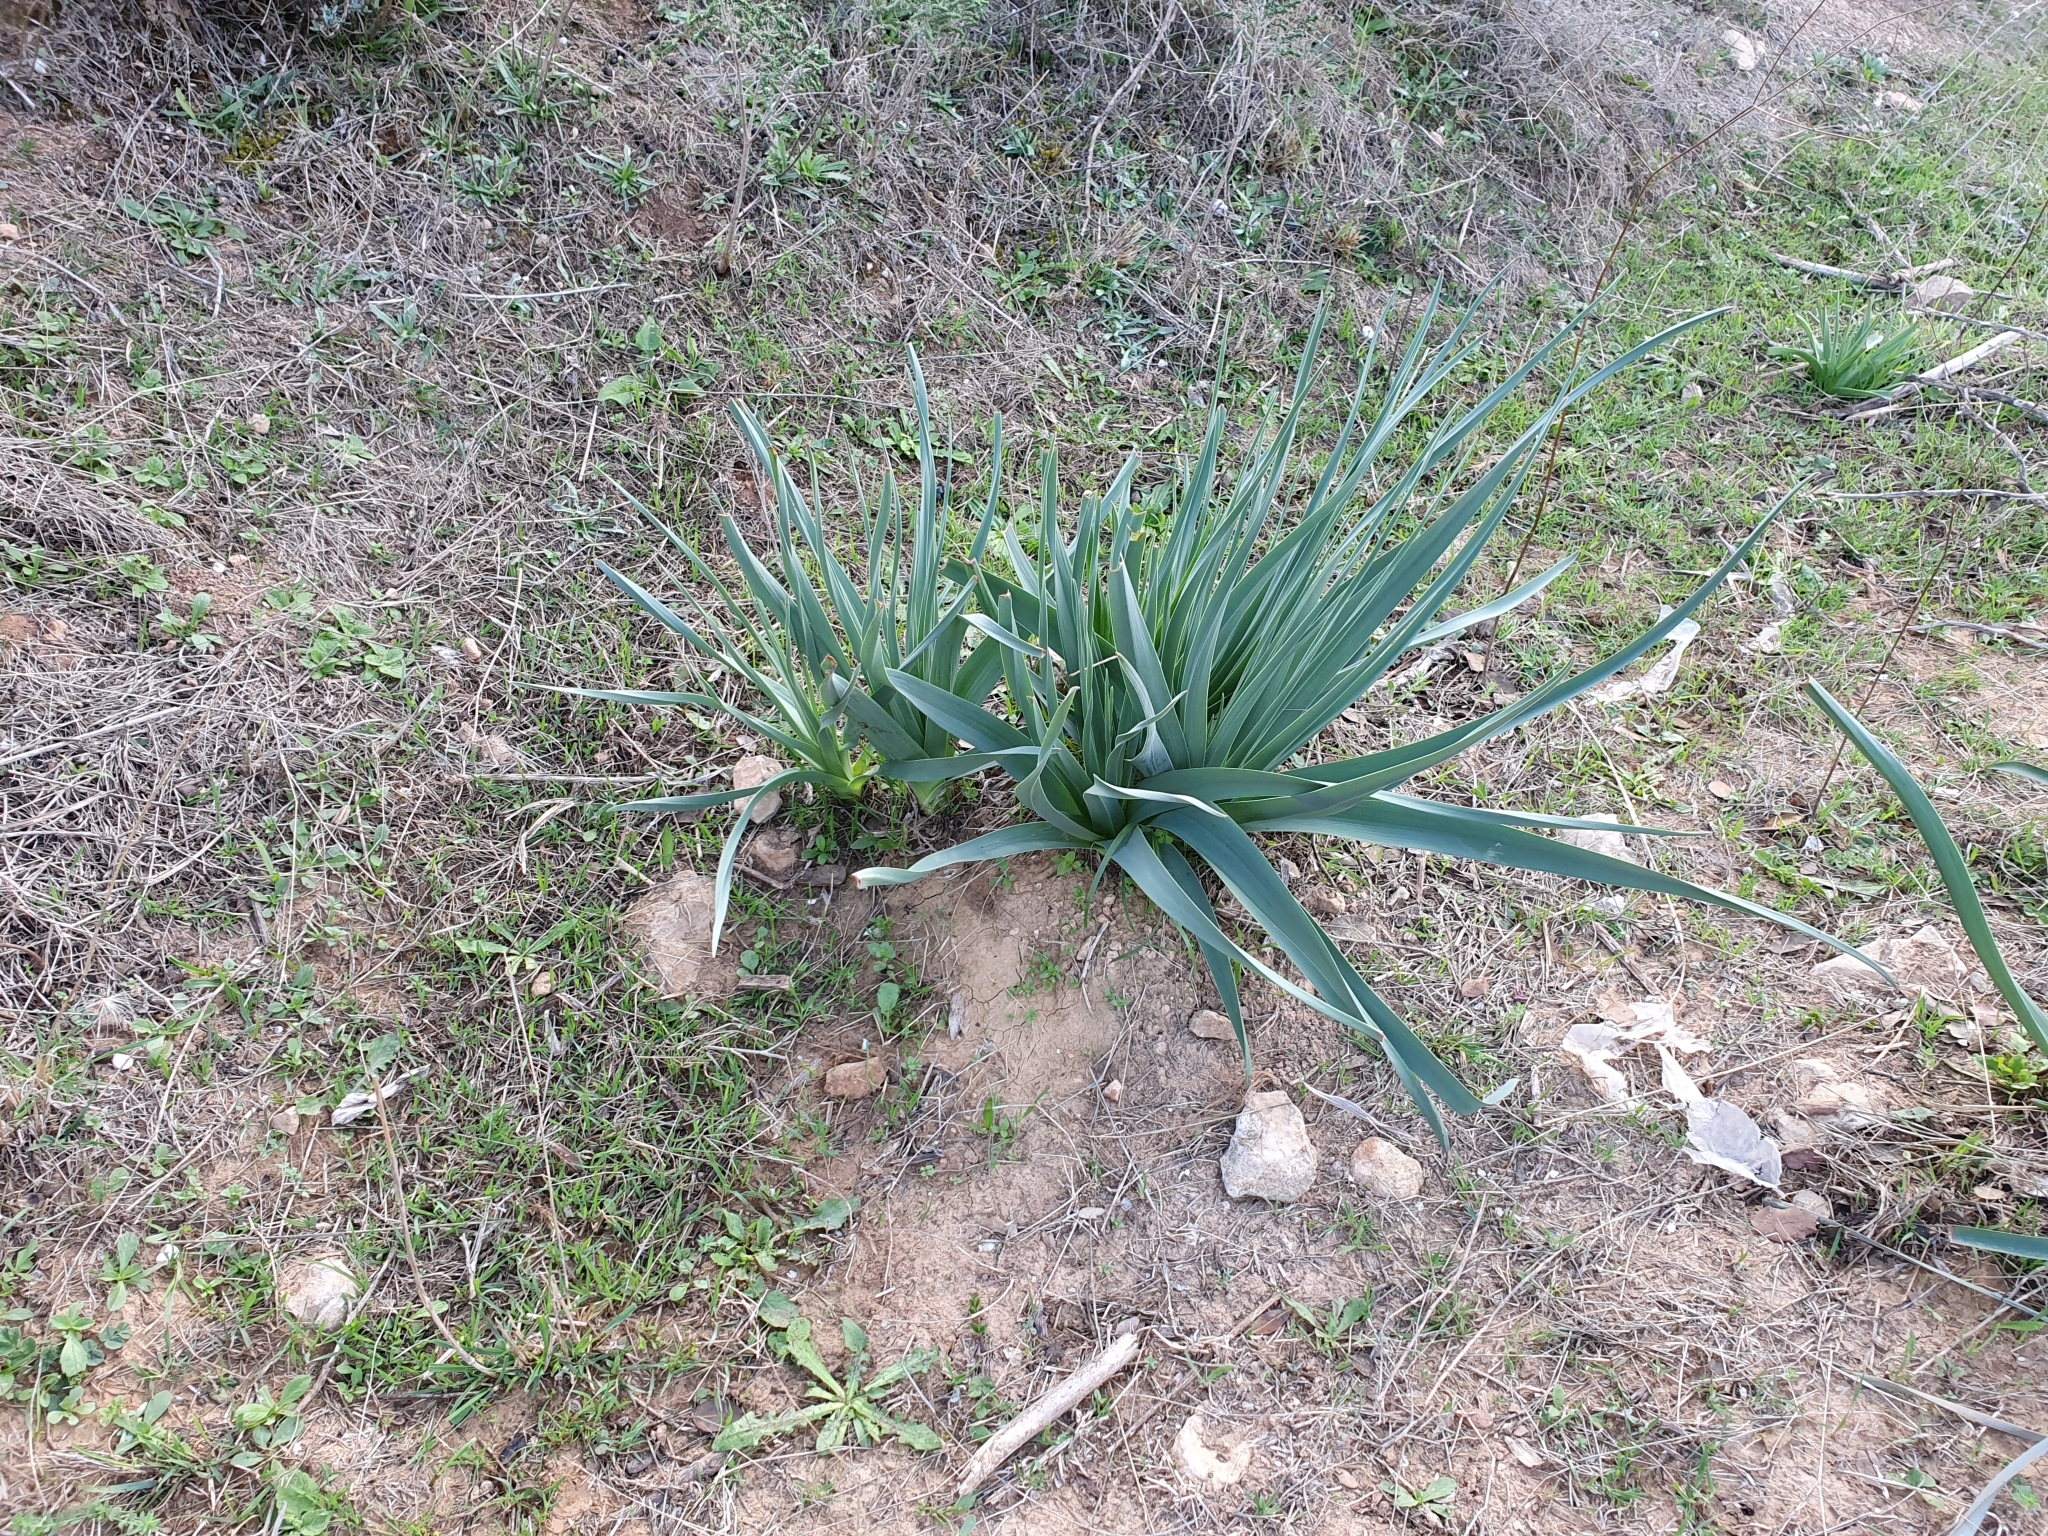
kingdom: Plantae
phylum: Tracheophyta
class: Liliopsida
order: Asparagales
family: Asphodelaceae
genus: Asphodelus
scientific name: Asphodelus ramosus
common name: Silverrod
